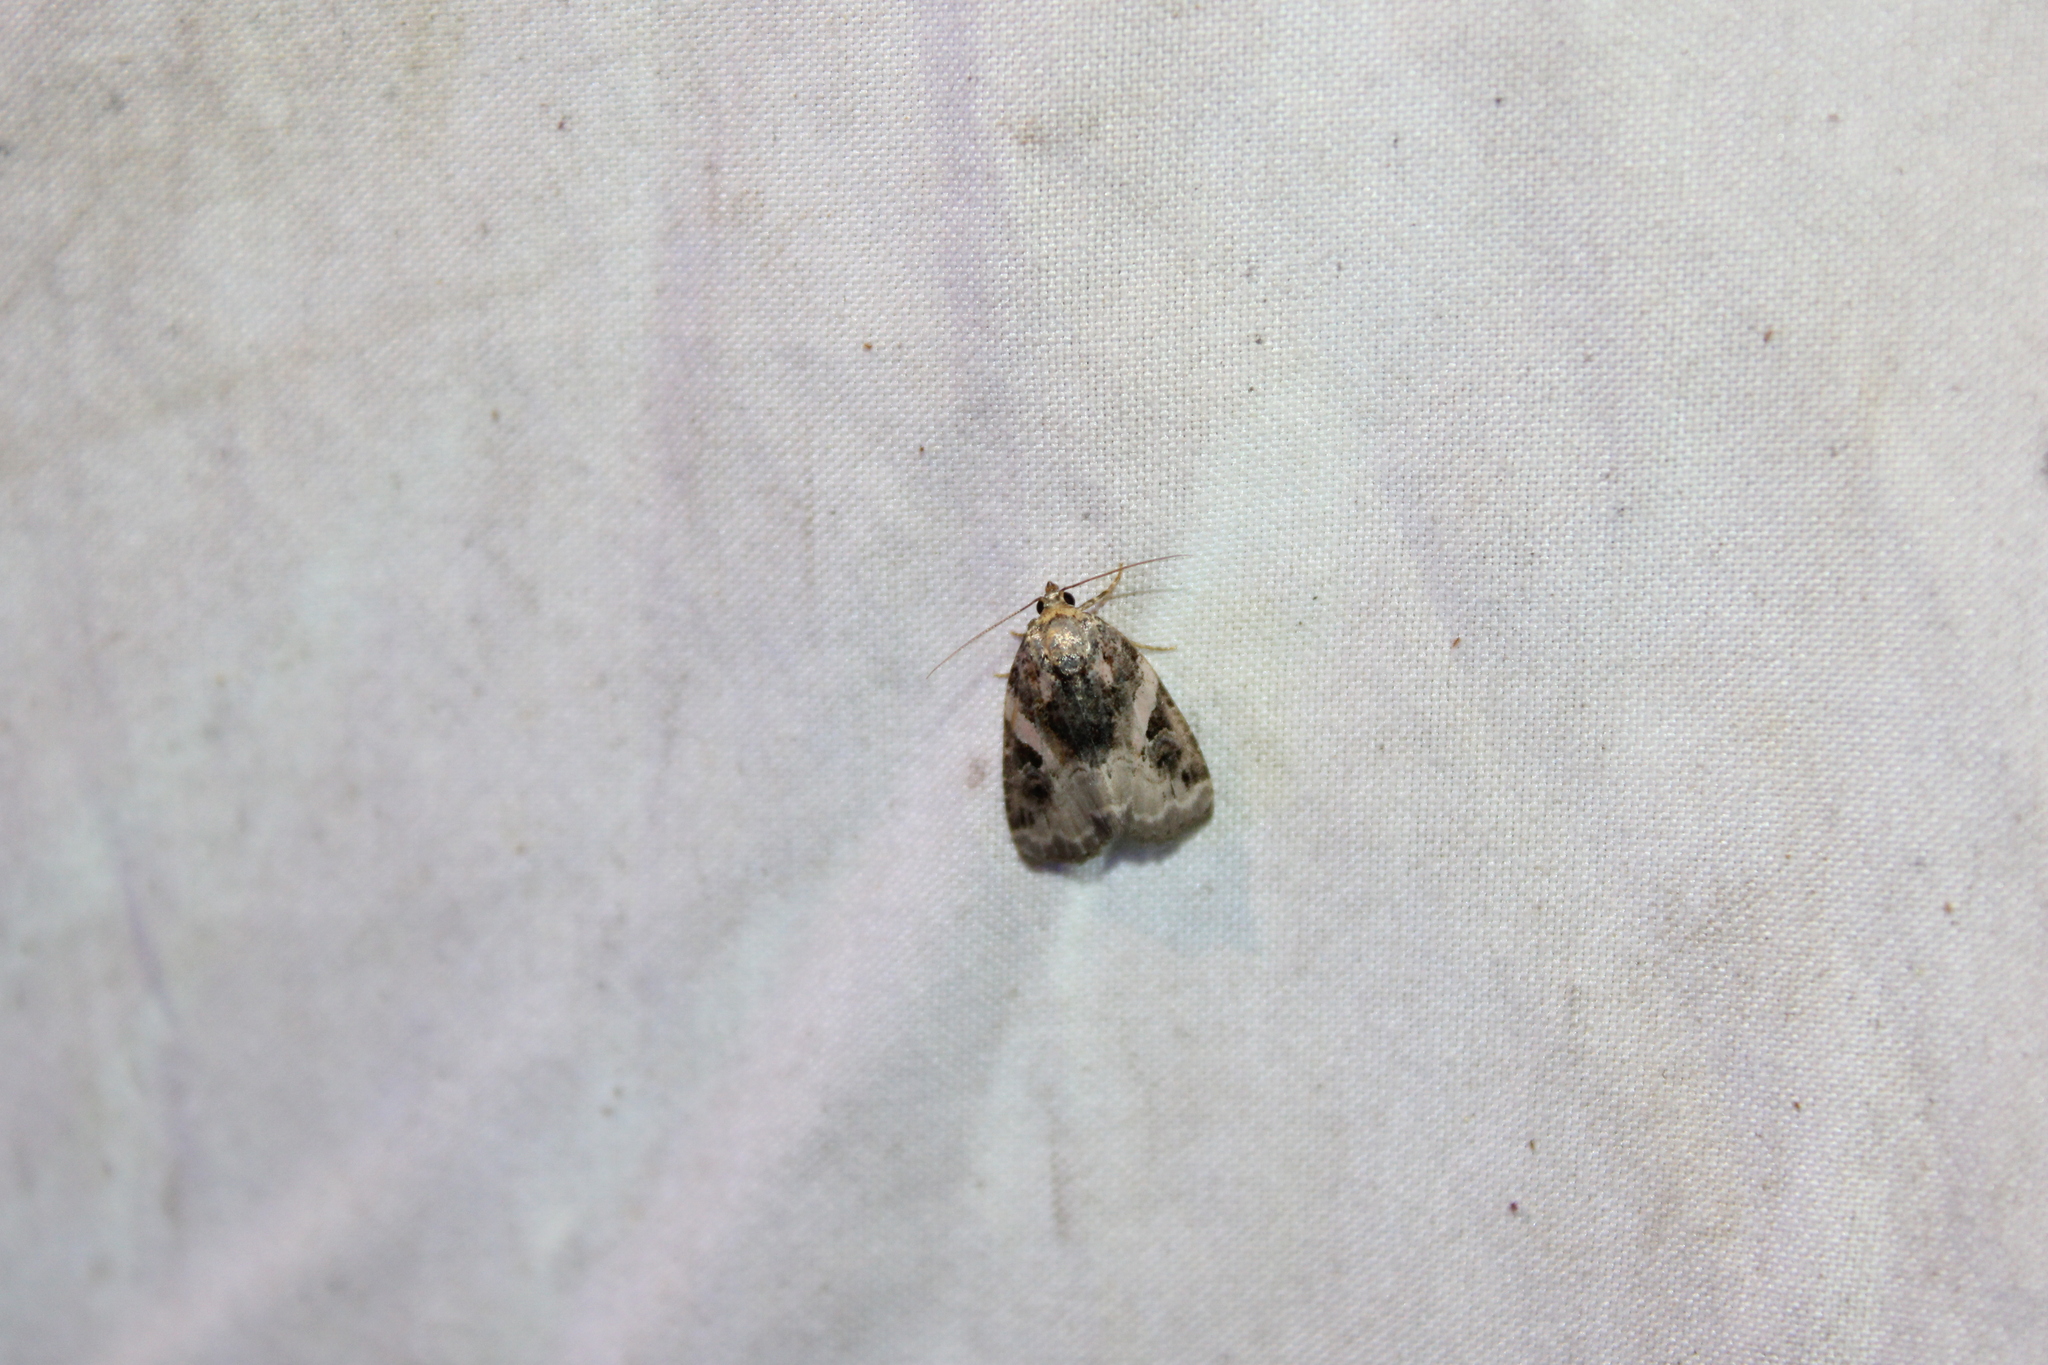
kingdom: Animalia
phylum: Arthropoda
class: Insecta
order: Lepidoptera
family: Noctuidae
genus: Pseudeustrotia
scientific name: Pseudeustrotia carneola
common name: Pink-barred lithacodia moth
